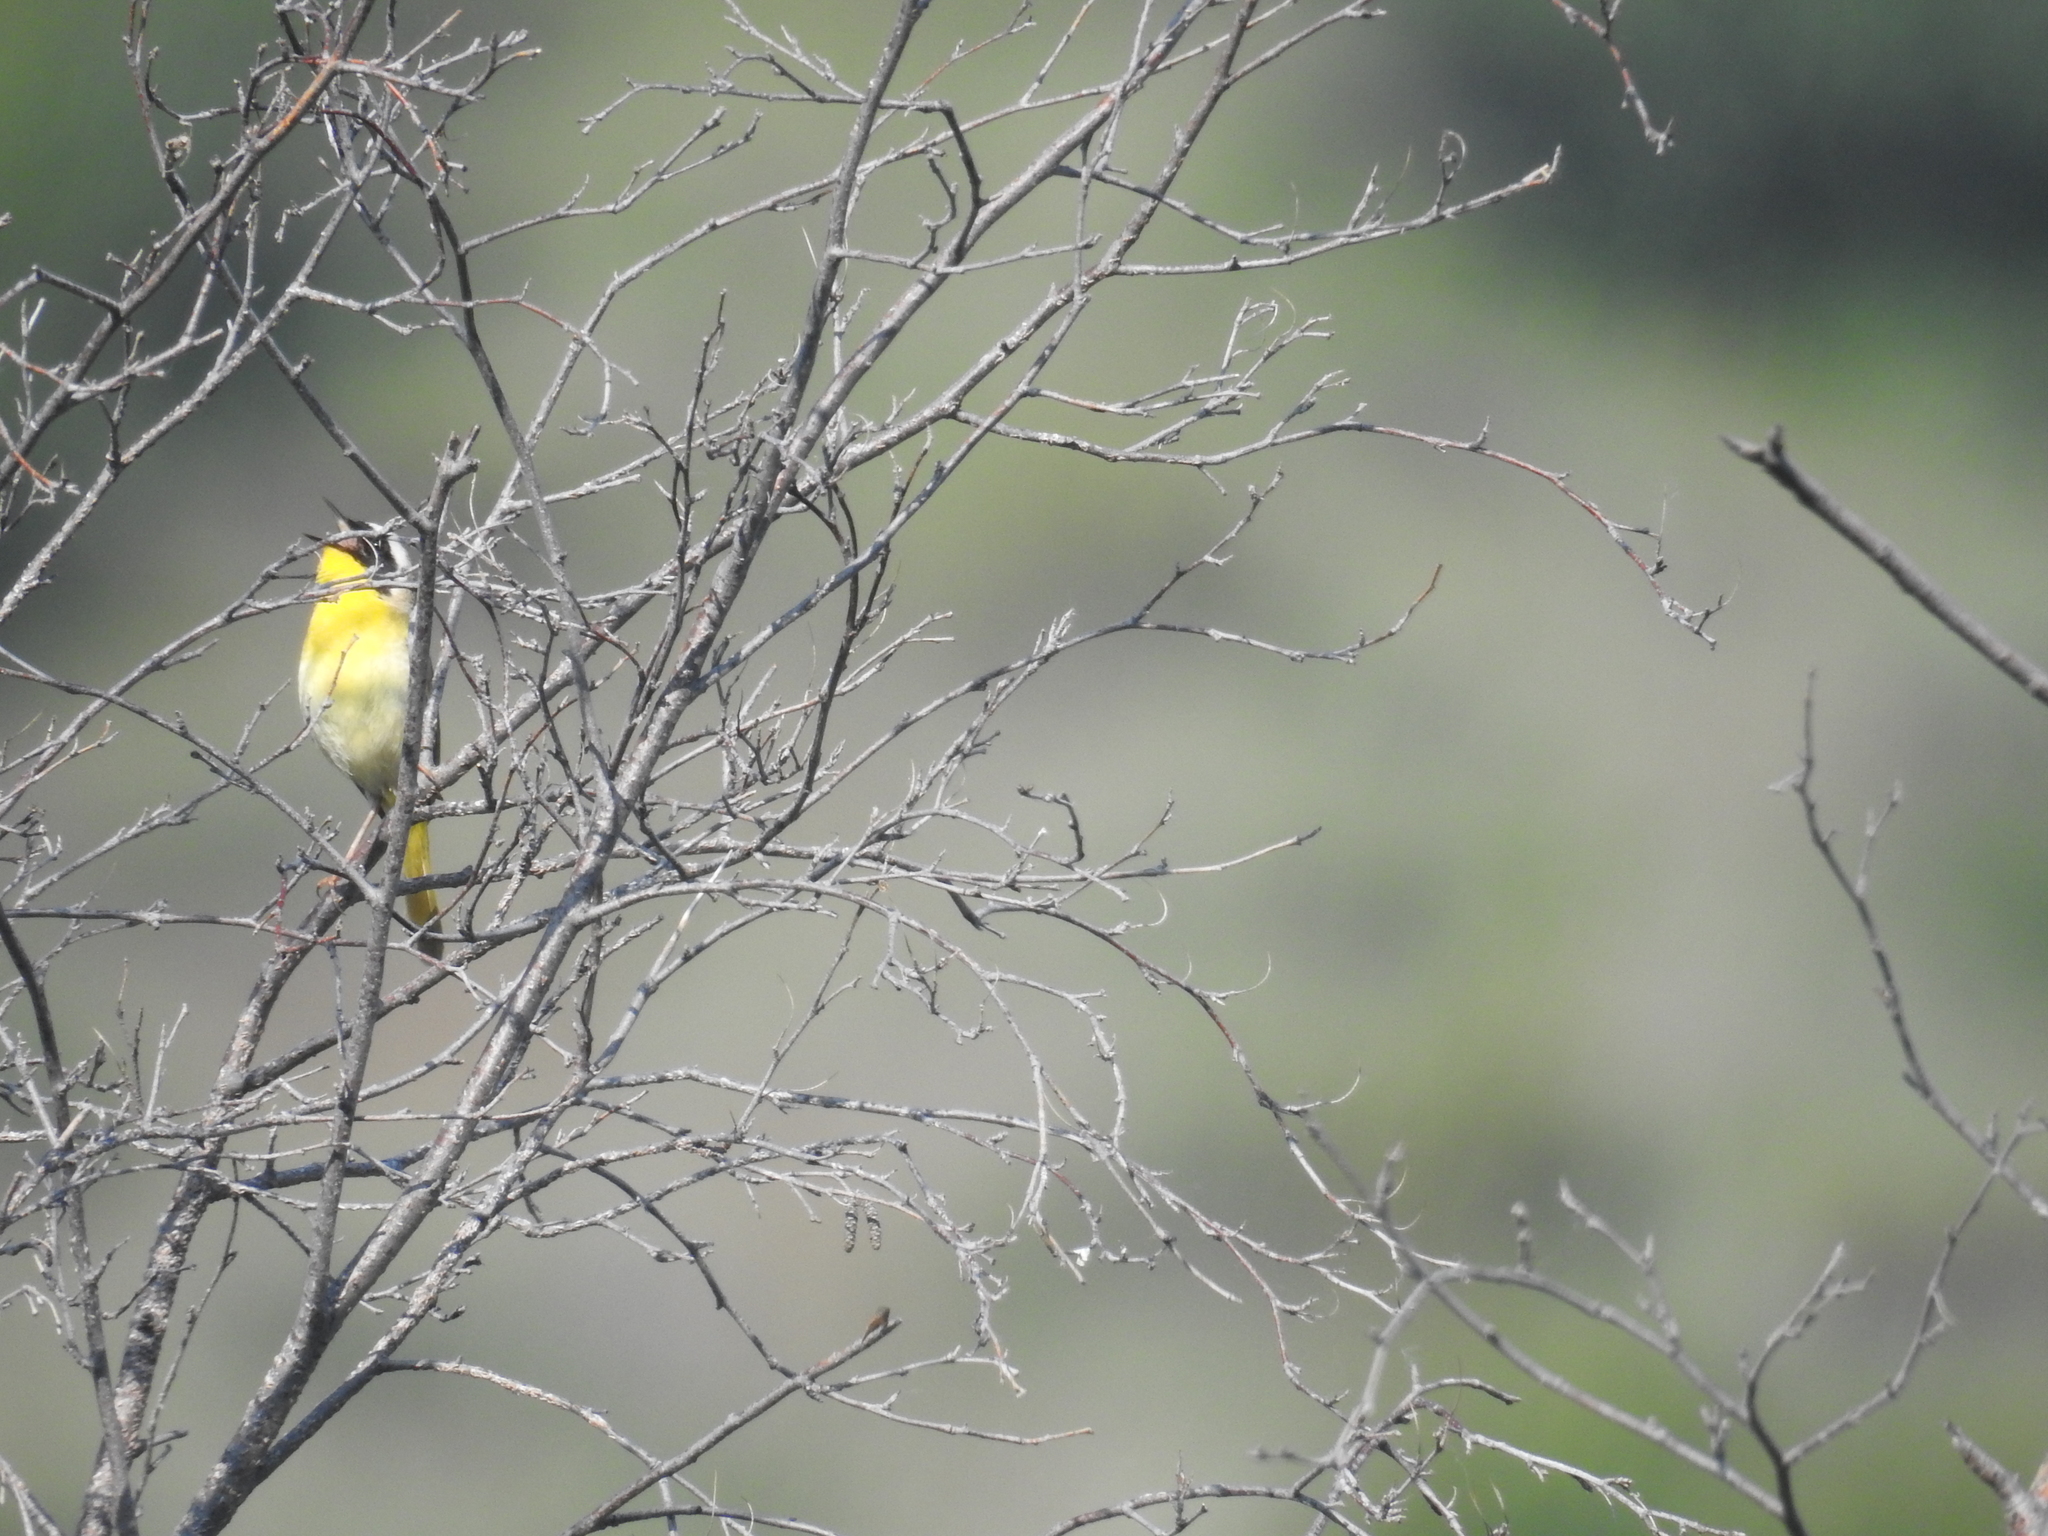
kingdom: Animalia
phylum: Chordata
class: Aves
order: Passeriformes
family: Parulidae
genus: Geothlypis
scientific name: Geothlypis trichas
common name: Common yellowthroat
